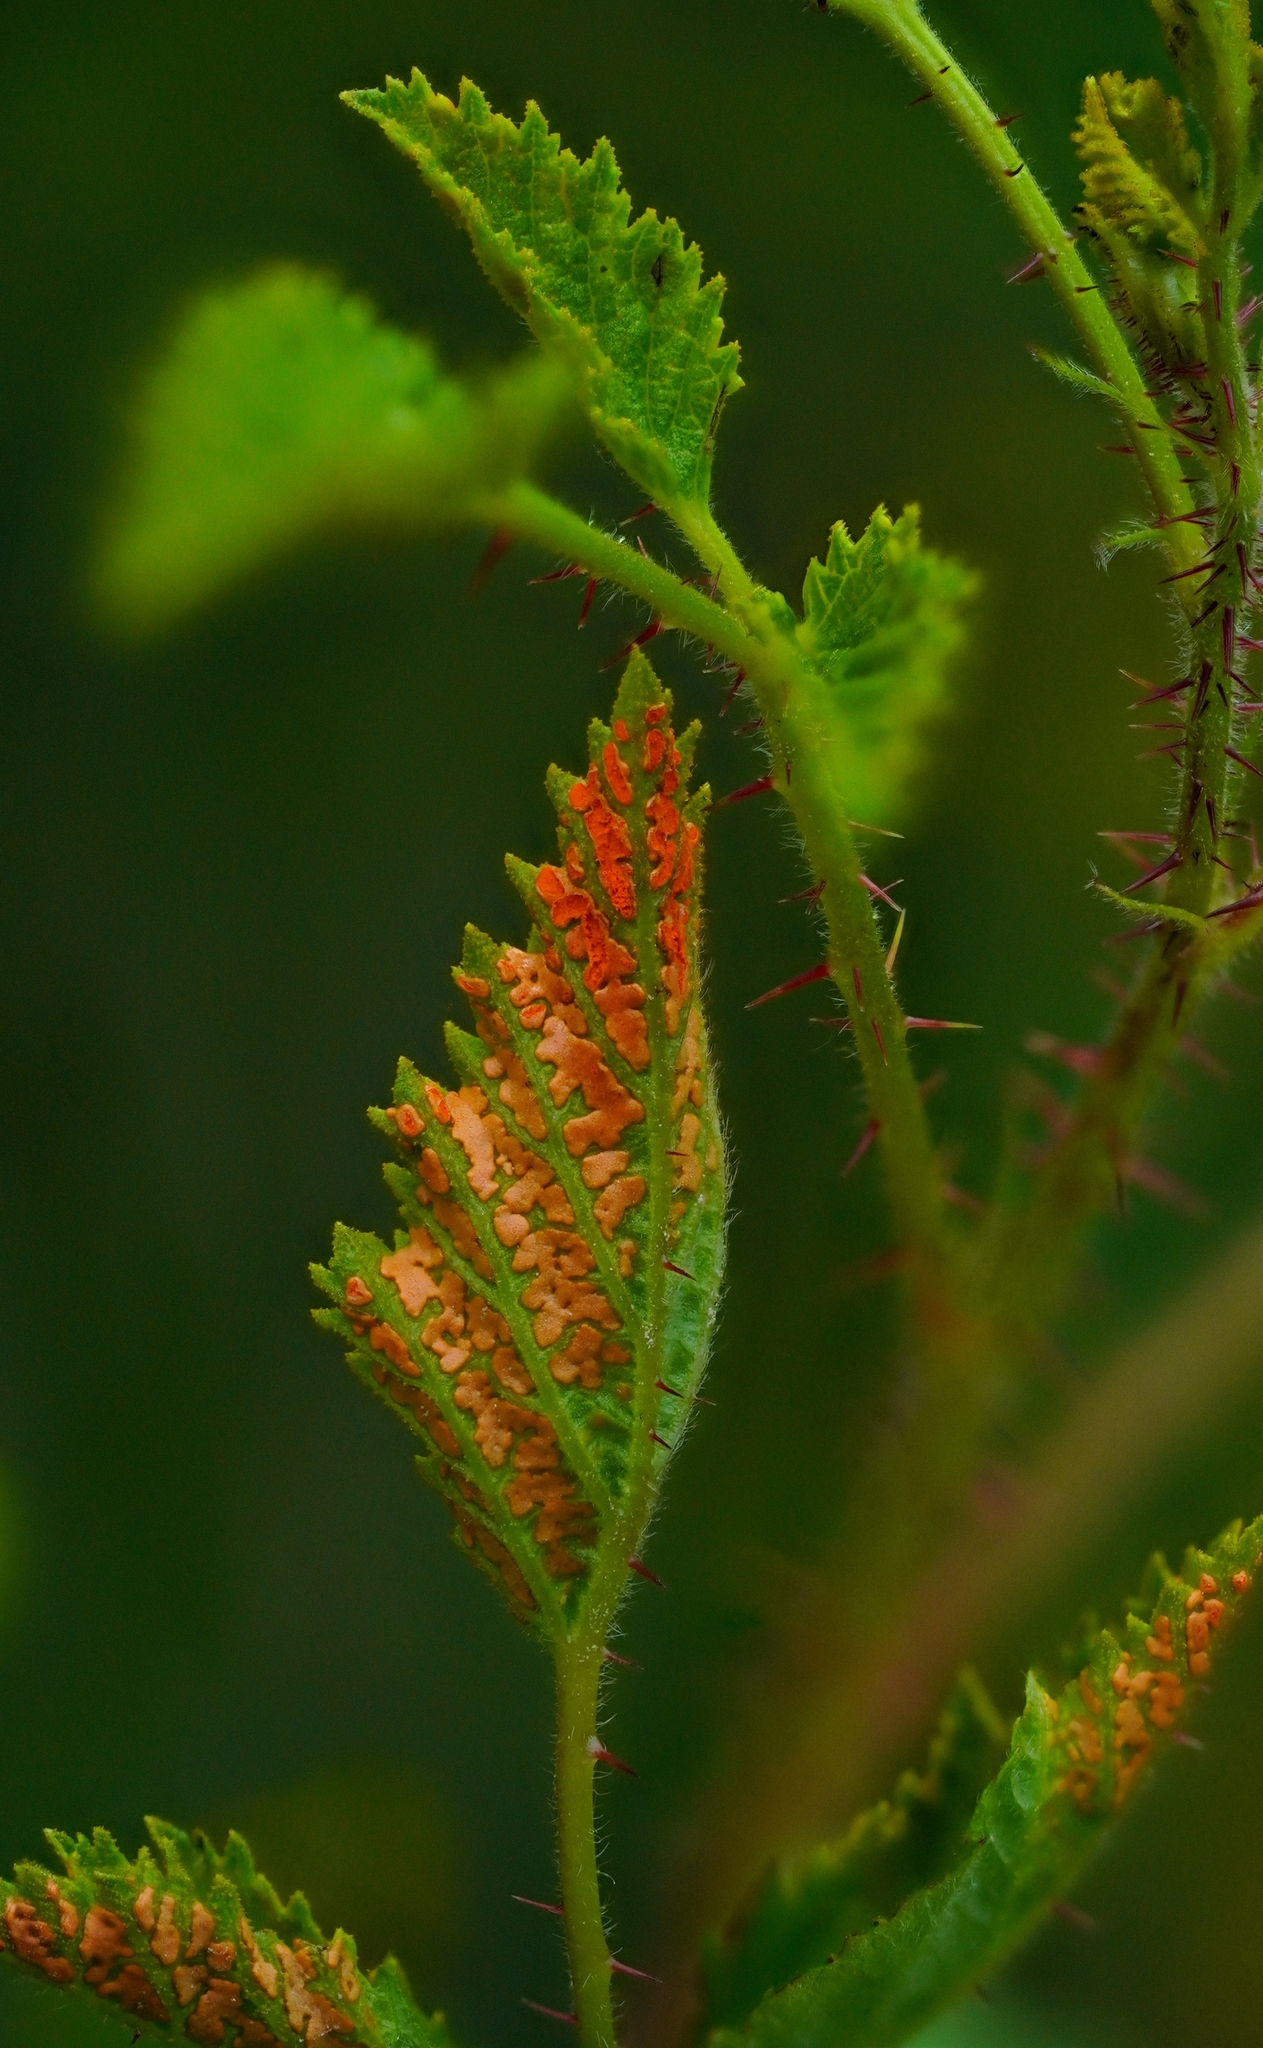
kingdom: Fungi
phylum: Basidiomycota
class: Pucciniomycetes
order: Pucciniales
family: Phragmidiaceae
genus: Arthuriomyces
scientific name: Arthuriomyces peckianus
